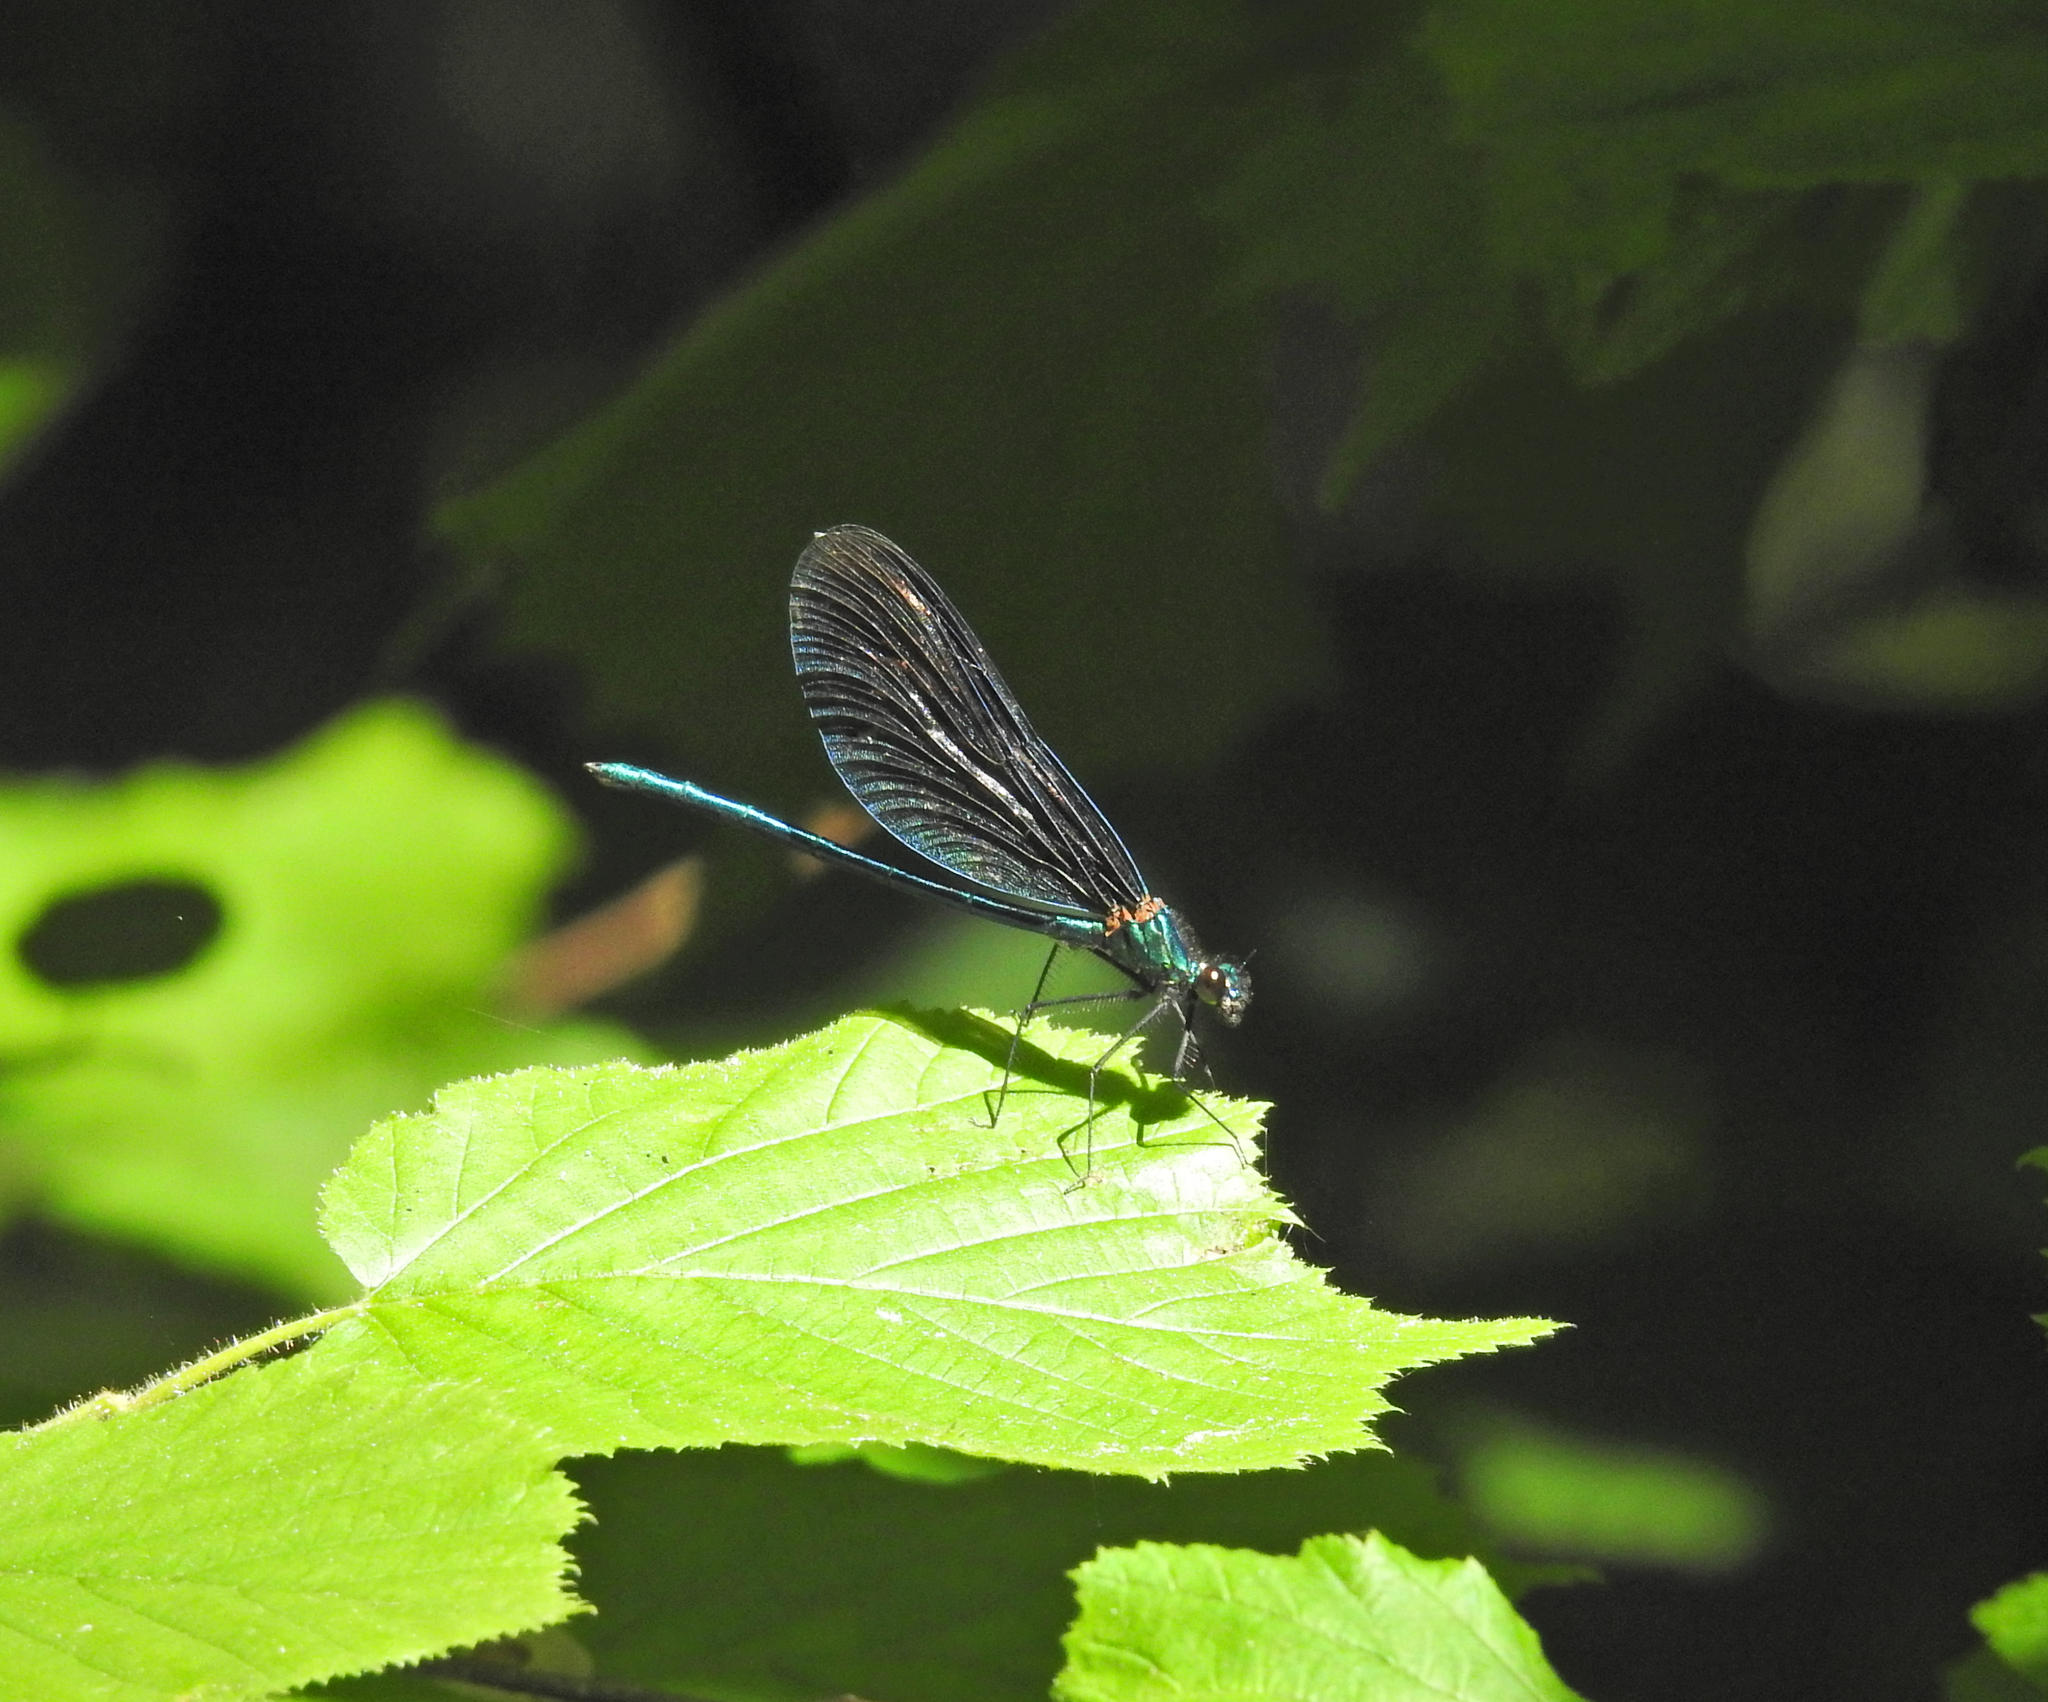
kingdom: Animalia
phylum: Arthropoda
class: Insecta
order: Odonata
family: Calopterygidae
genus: Calopteryx
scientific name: Calopteryx virgo
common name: Beautiful demoiselle
